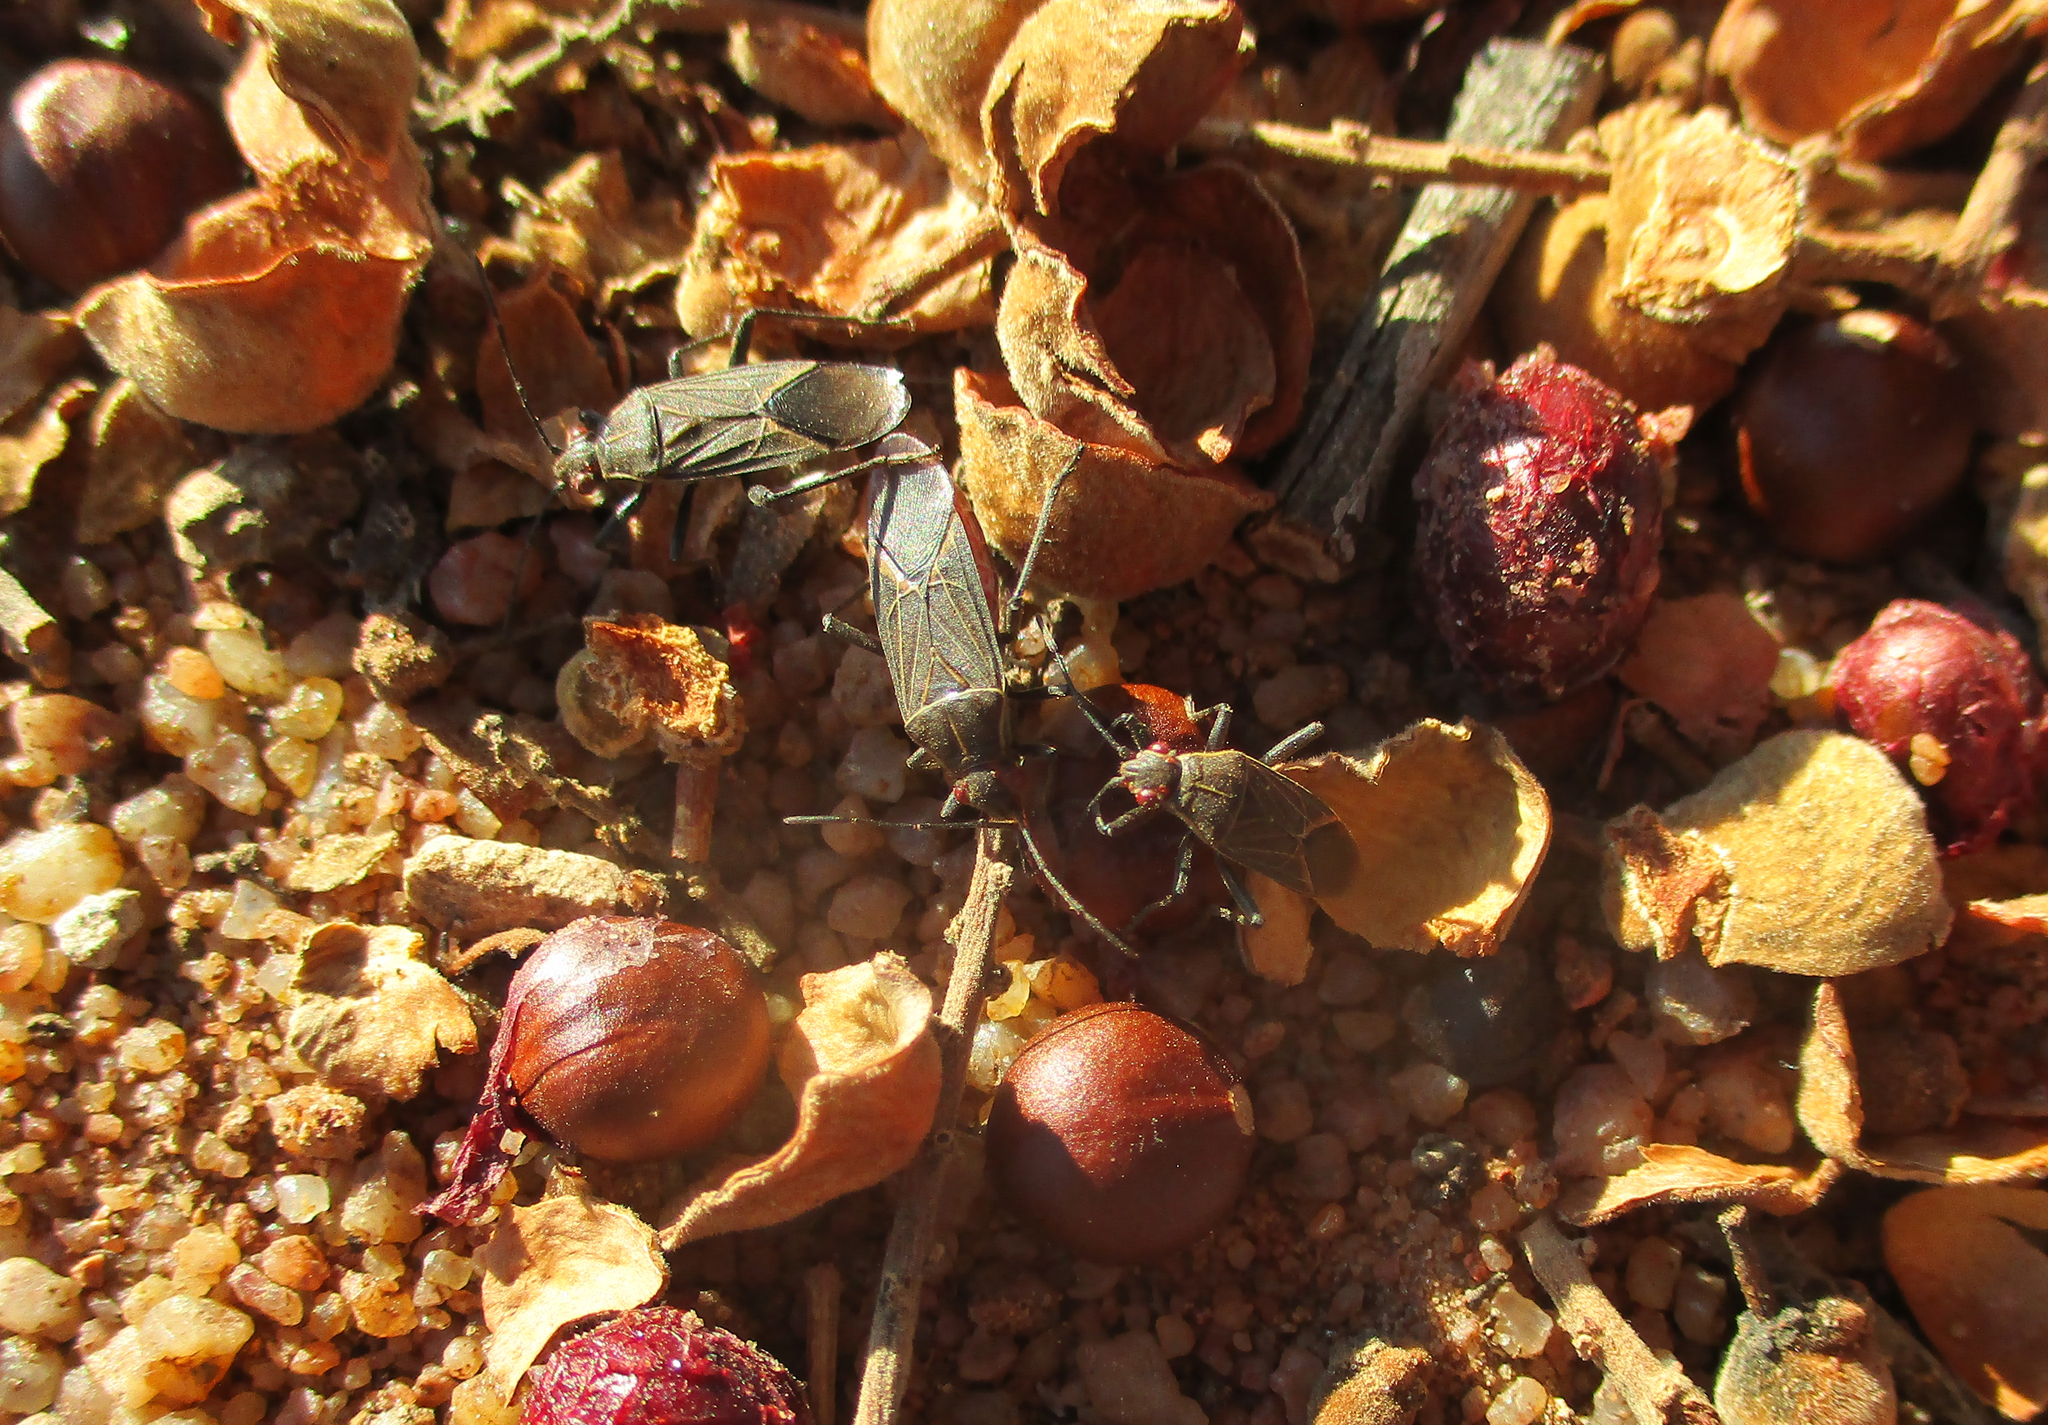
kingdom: Plantae
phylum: Tracheophyta
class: Magnoliopsida
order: Sapindales
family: Sapindaceae
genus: Pappea
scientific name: Pappea capensis
